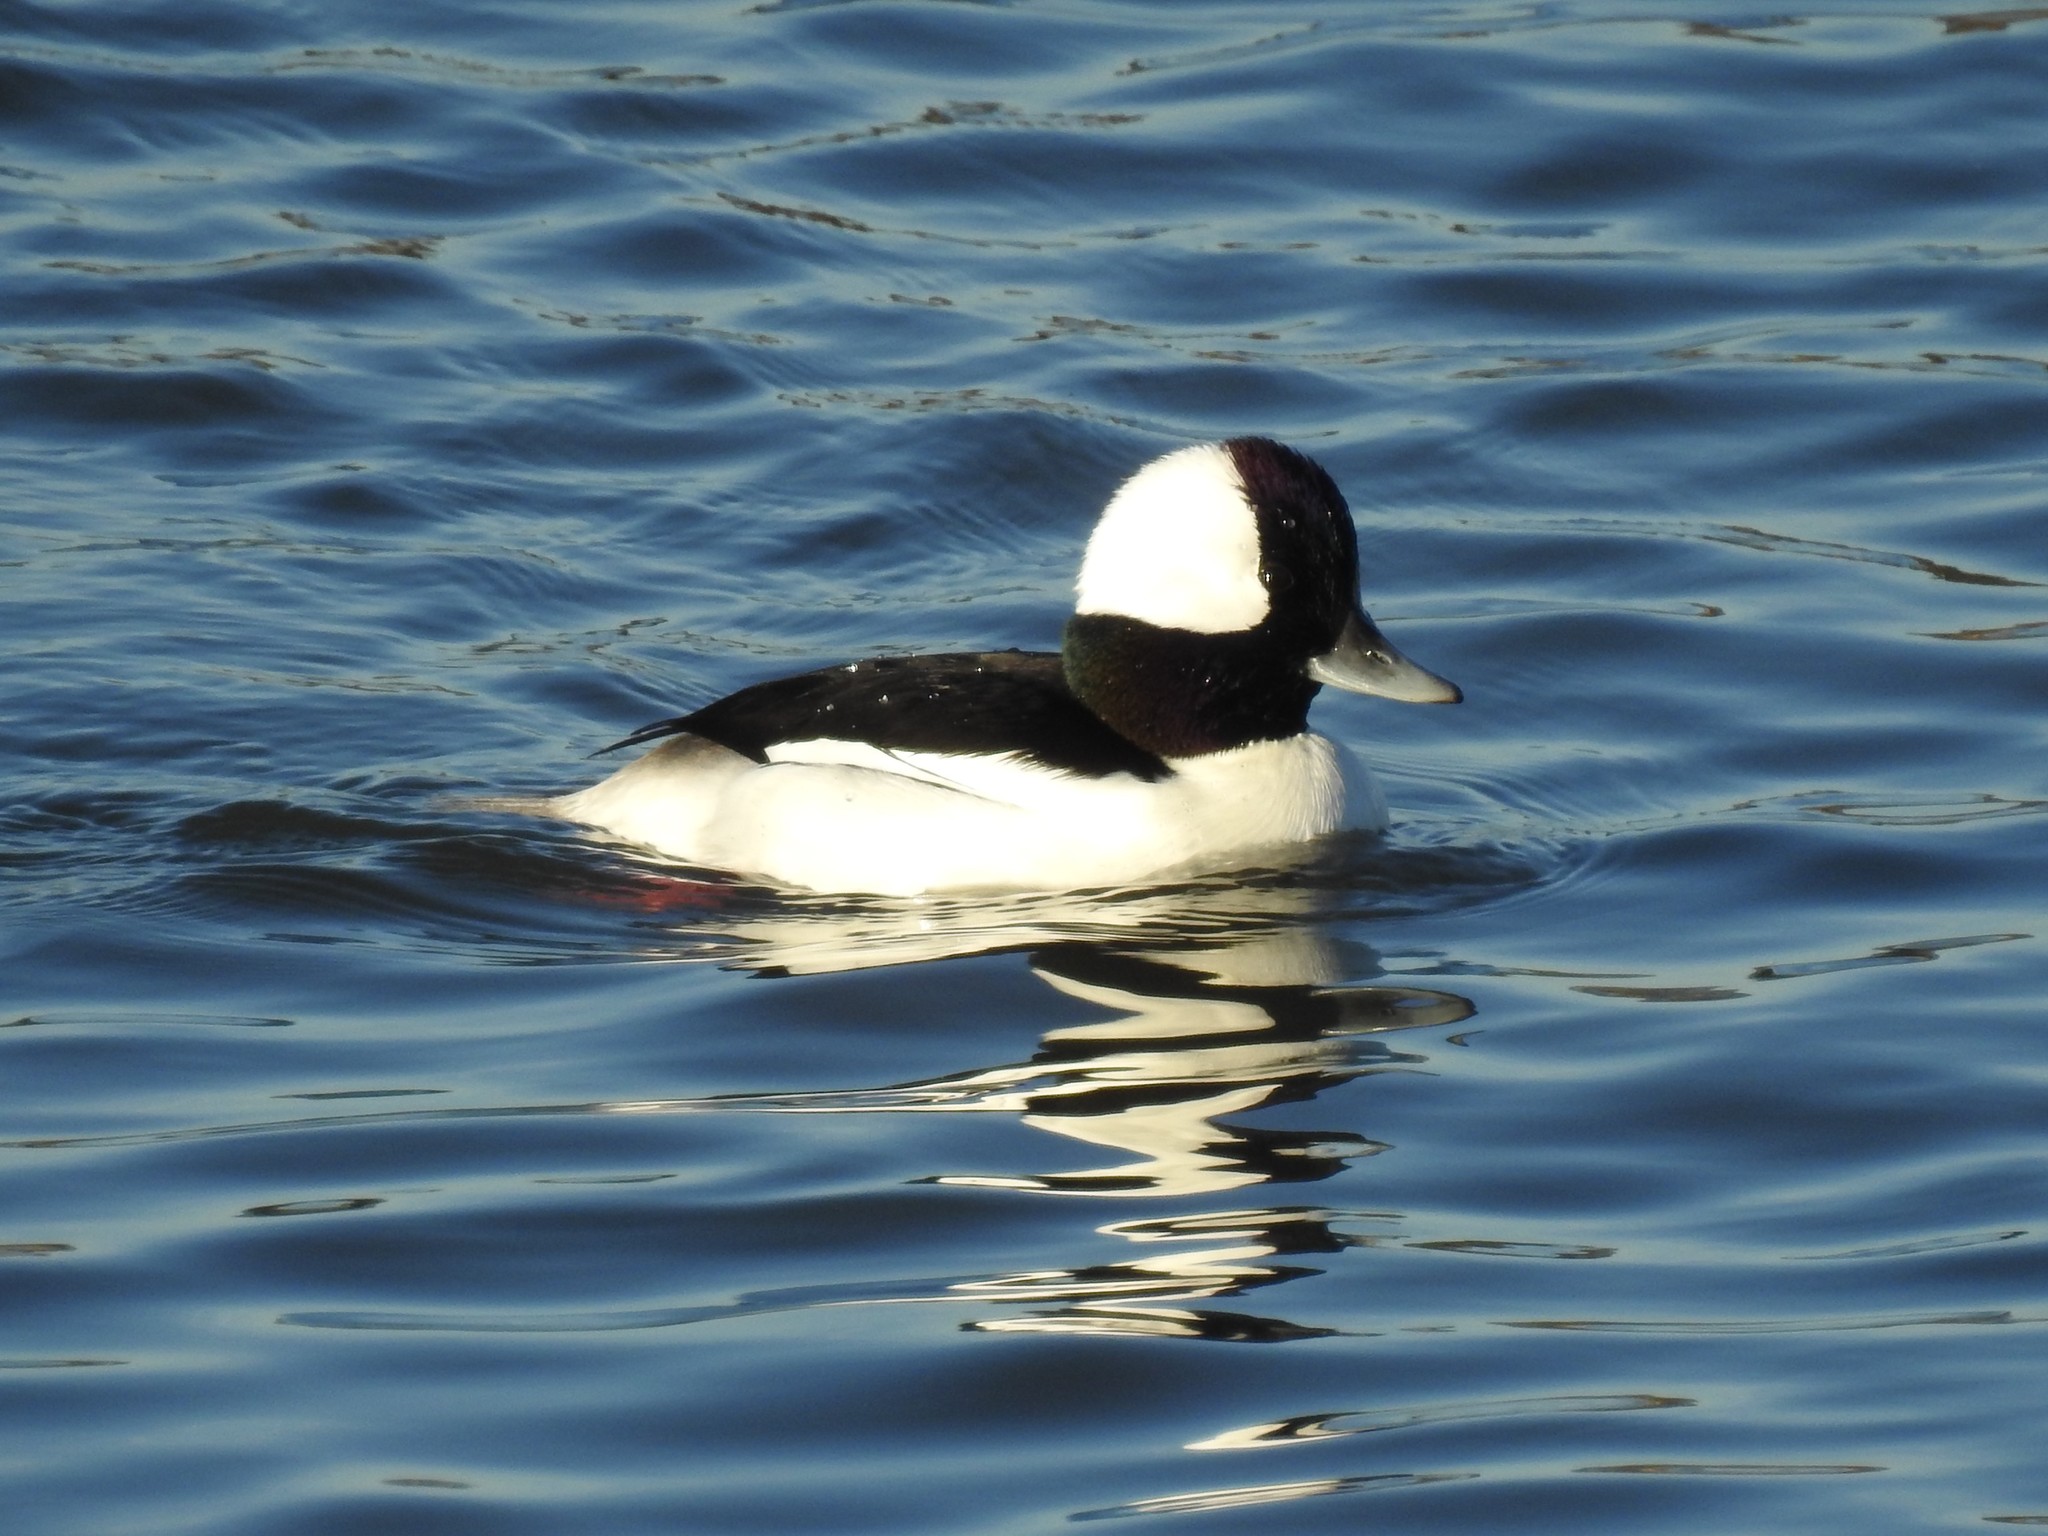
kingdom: Animalia
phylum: Chordata
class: Aves
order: Anseriformes
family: Anatidae
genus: Bucephala
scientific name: Bucephala albeola
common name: Bufflehead
